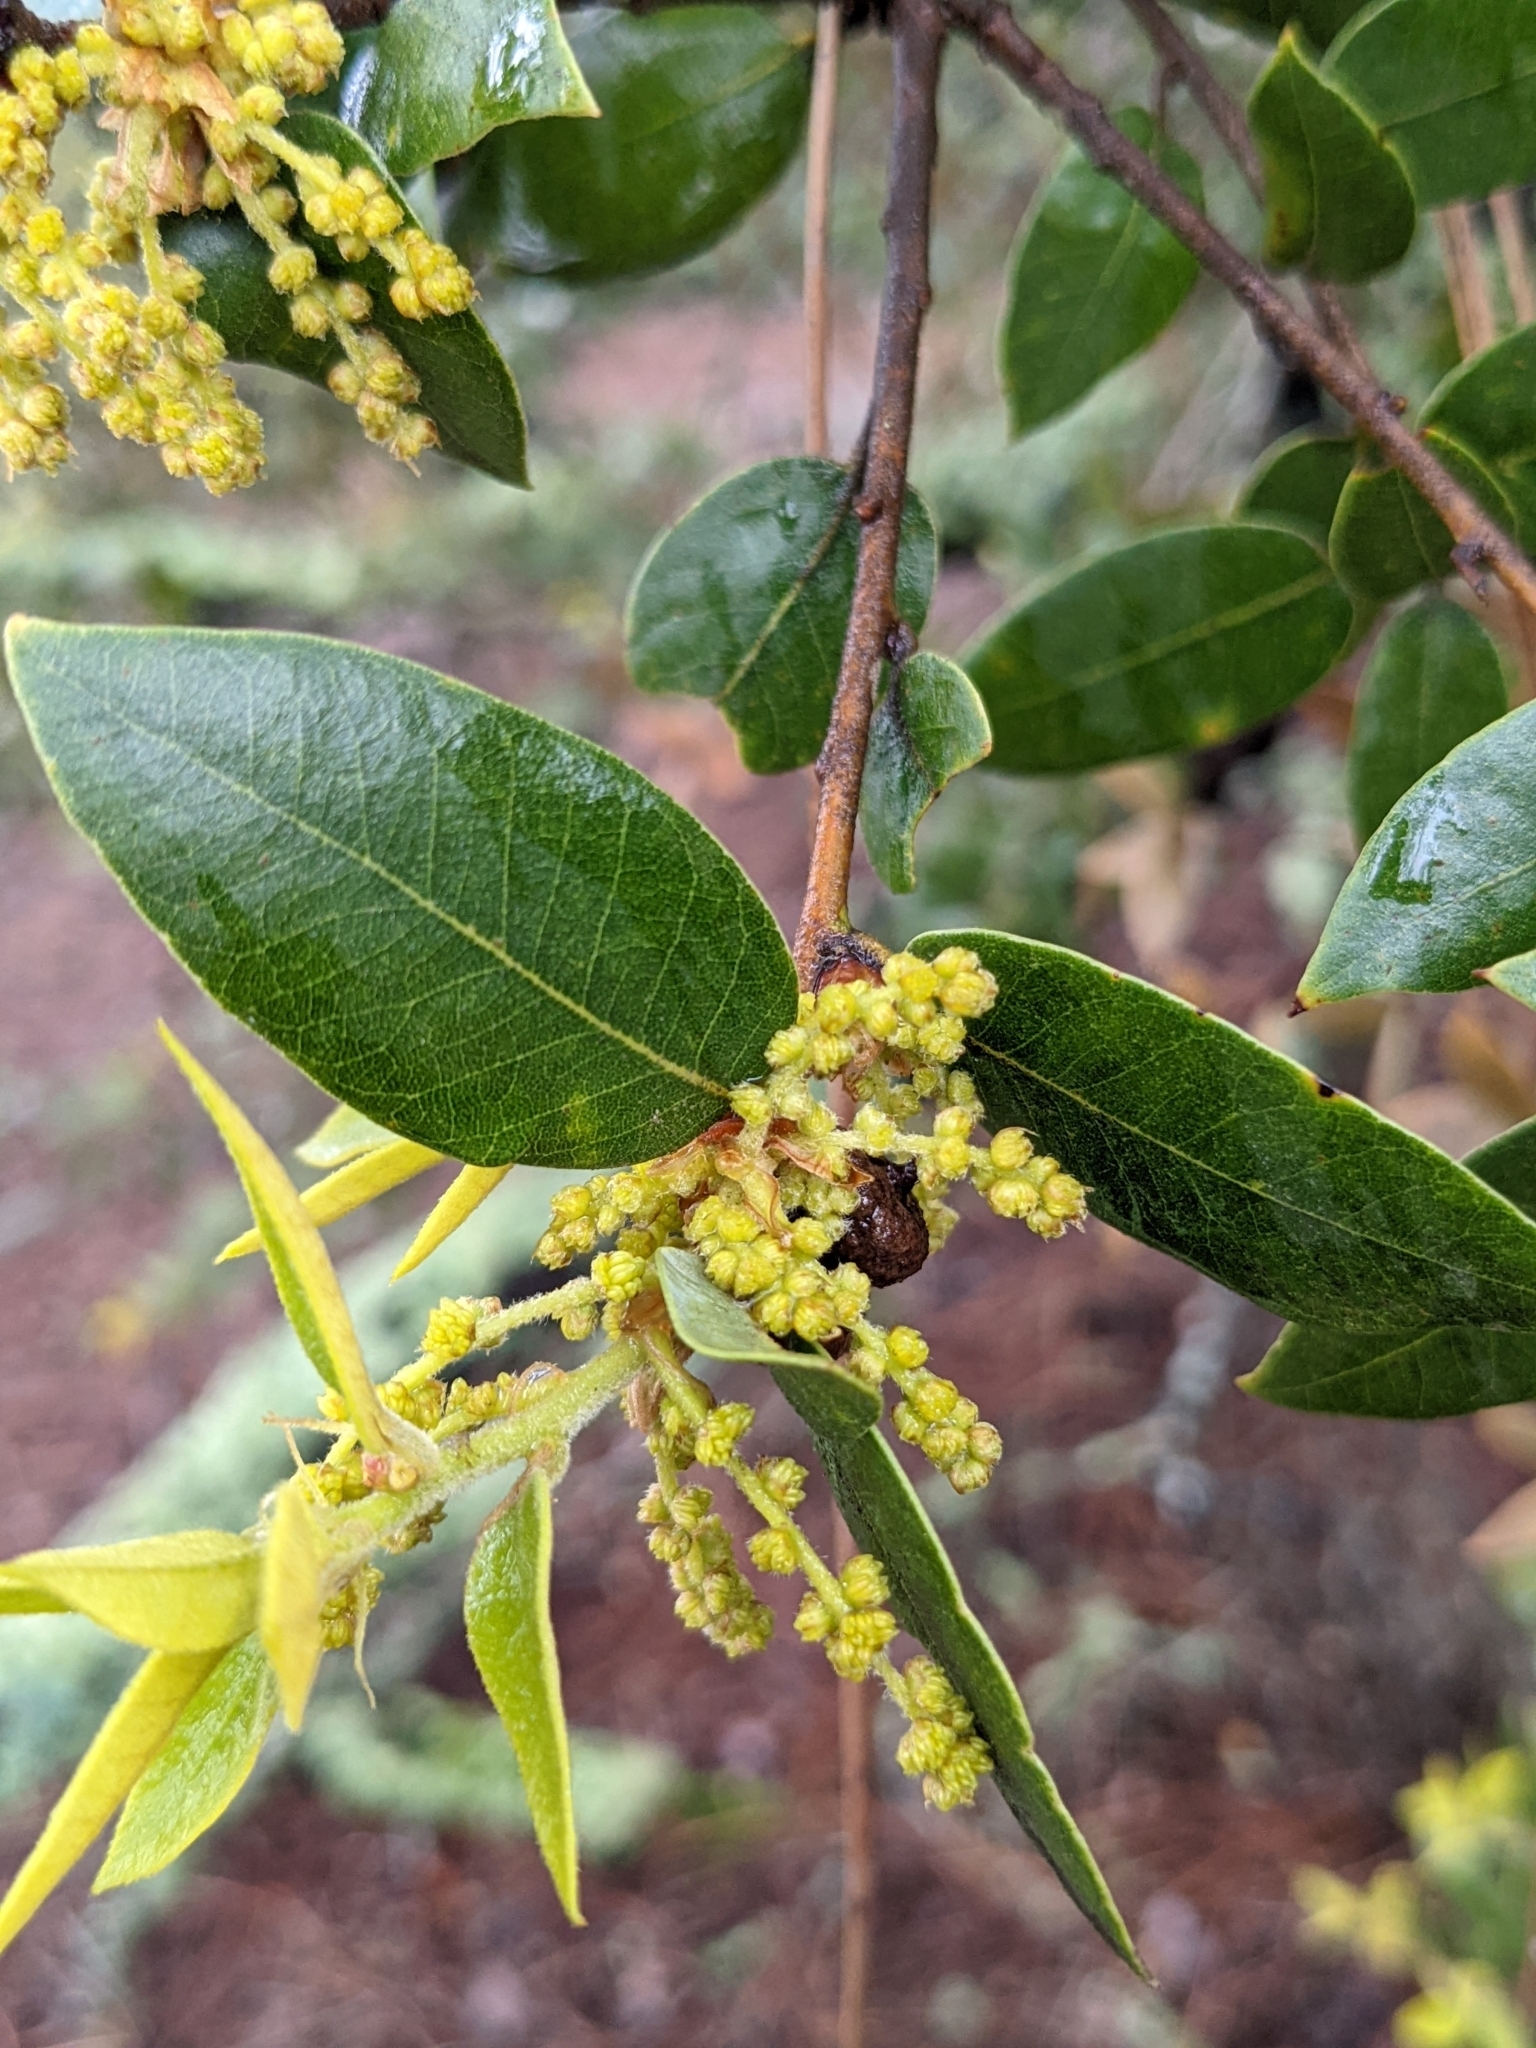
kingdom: Plantae
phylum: Tracheophyta
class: Magnoliopsida
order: Fagales
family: Fagaceae
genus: Quercus
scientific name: Quercus chrysolepis
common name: Canyon live oak
